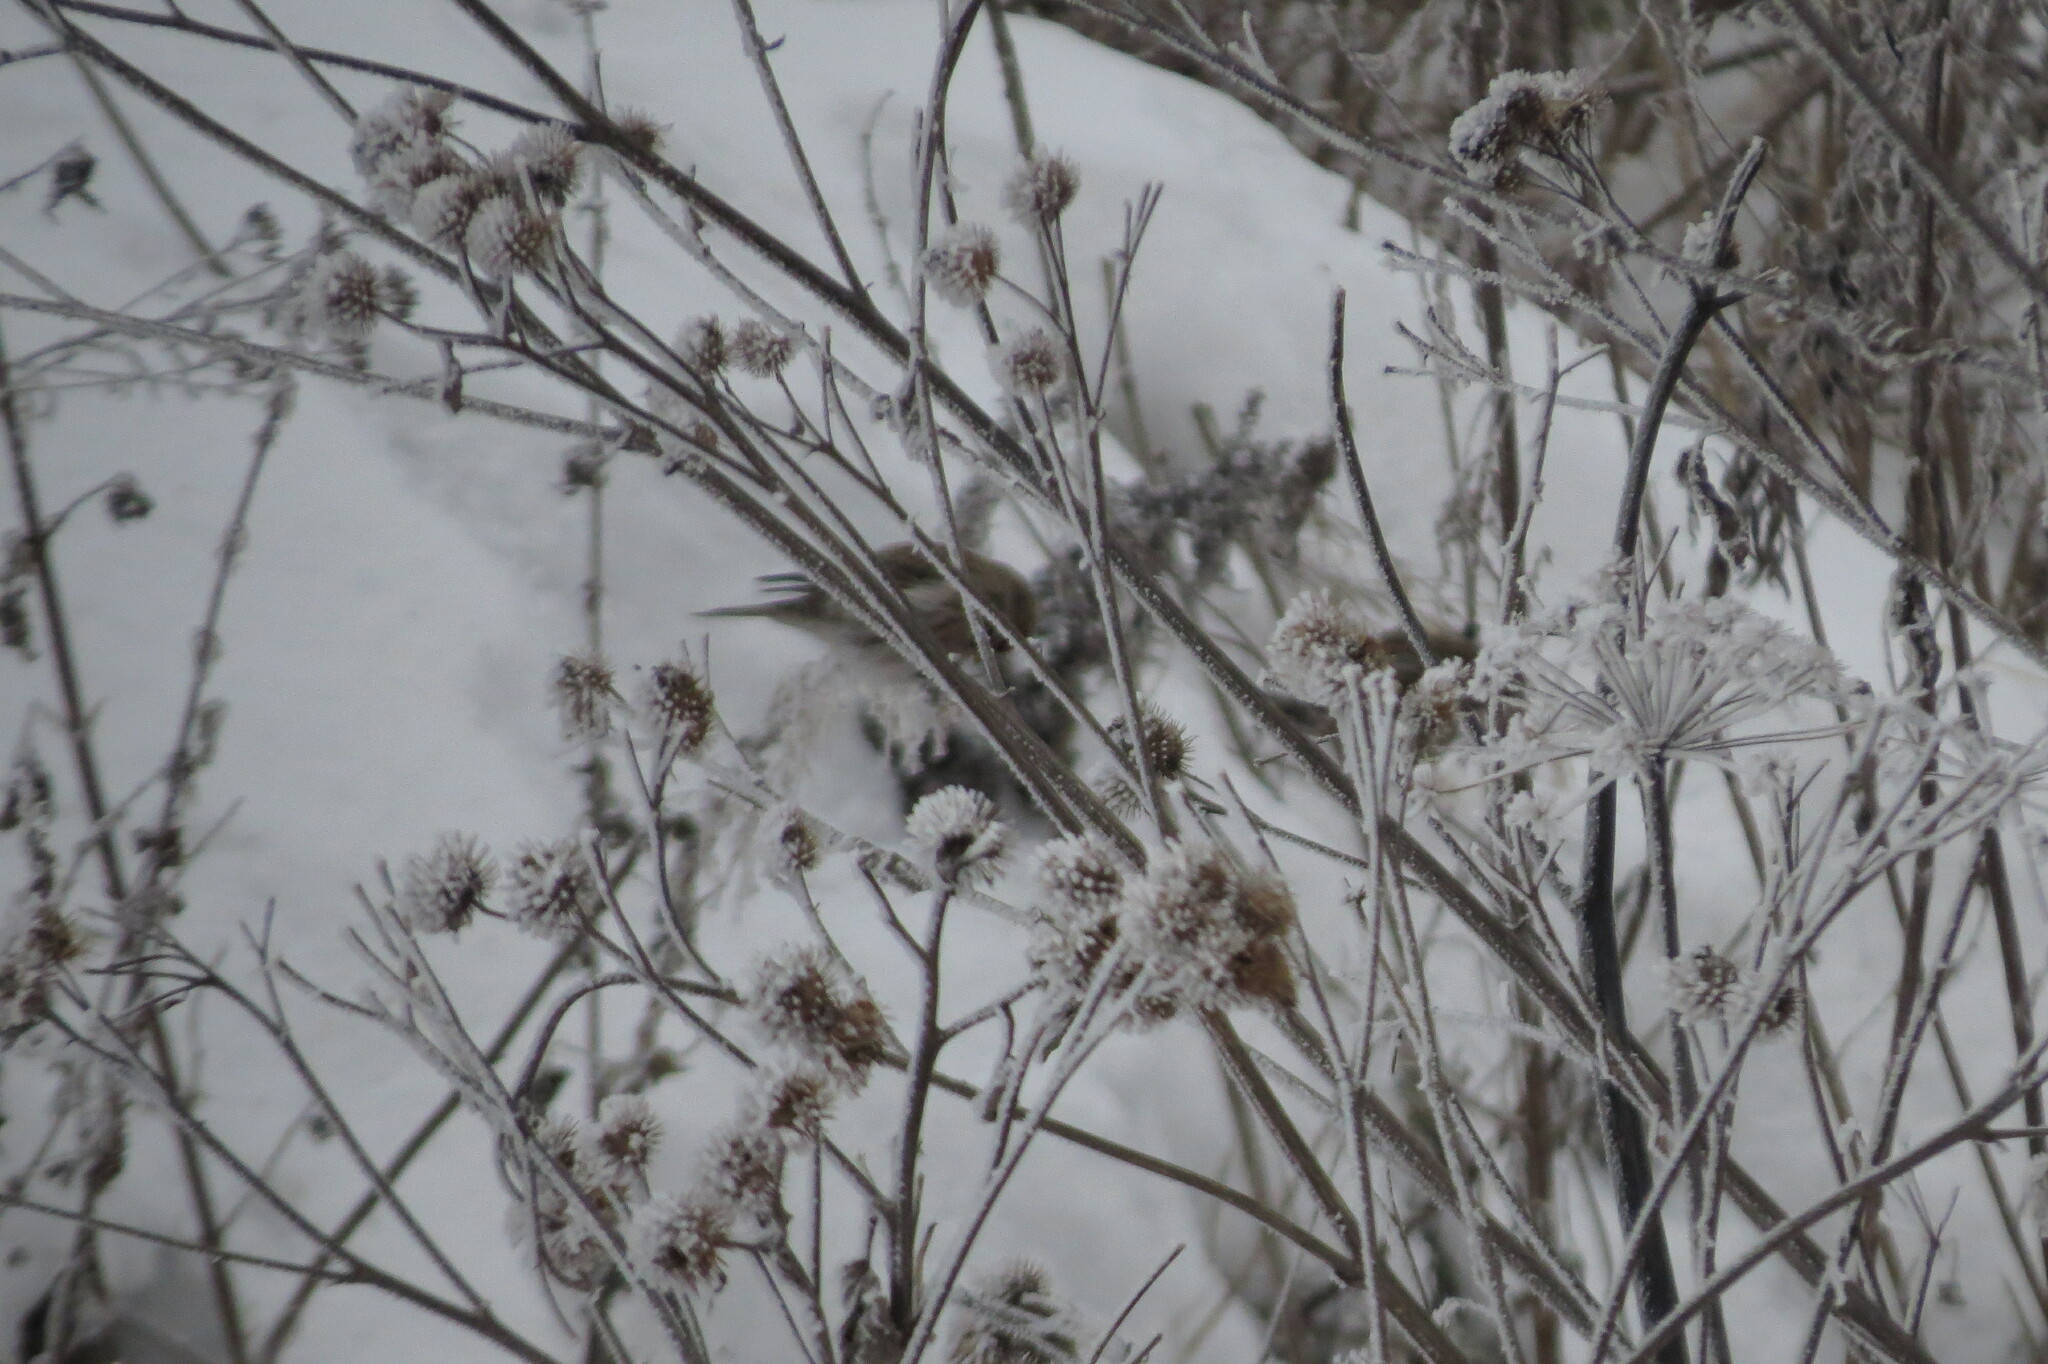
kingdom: Animalia
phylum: Chordata
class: Aves
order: Passeriformes
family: Fringillidae
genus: Acanthis
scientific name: Acanthis flammea
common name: Common redpoll
